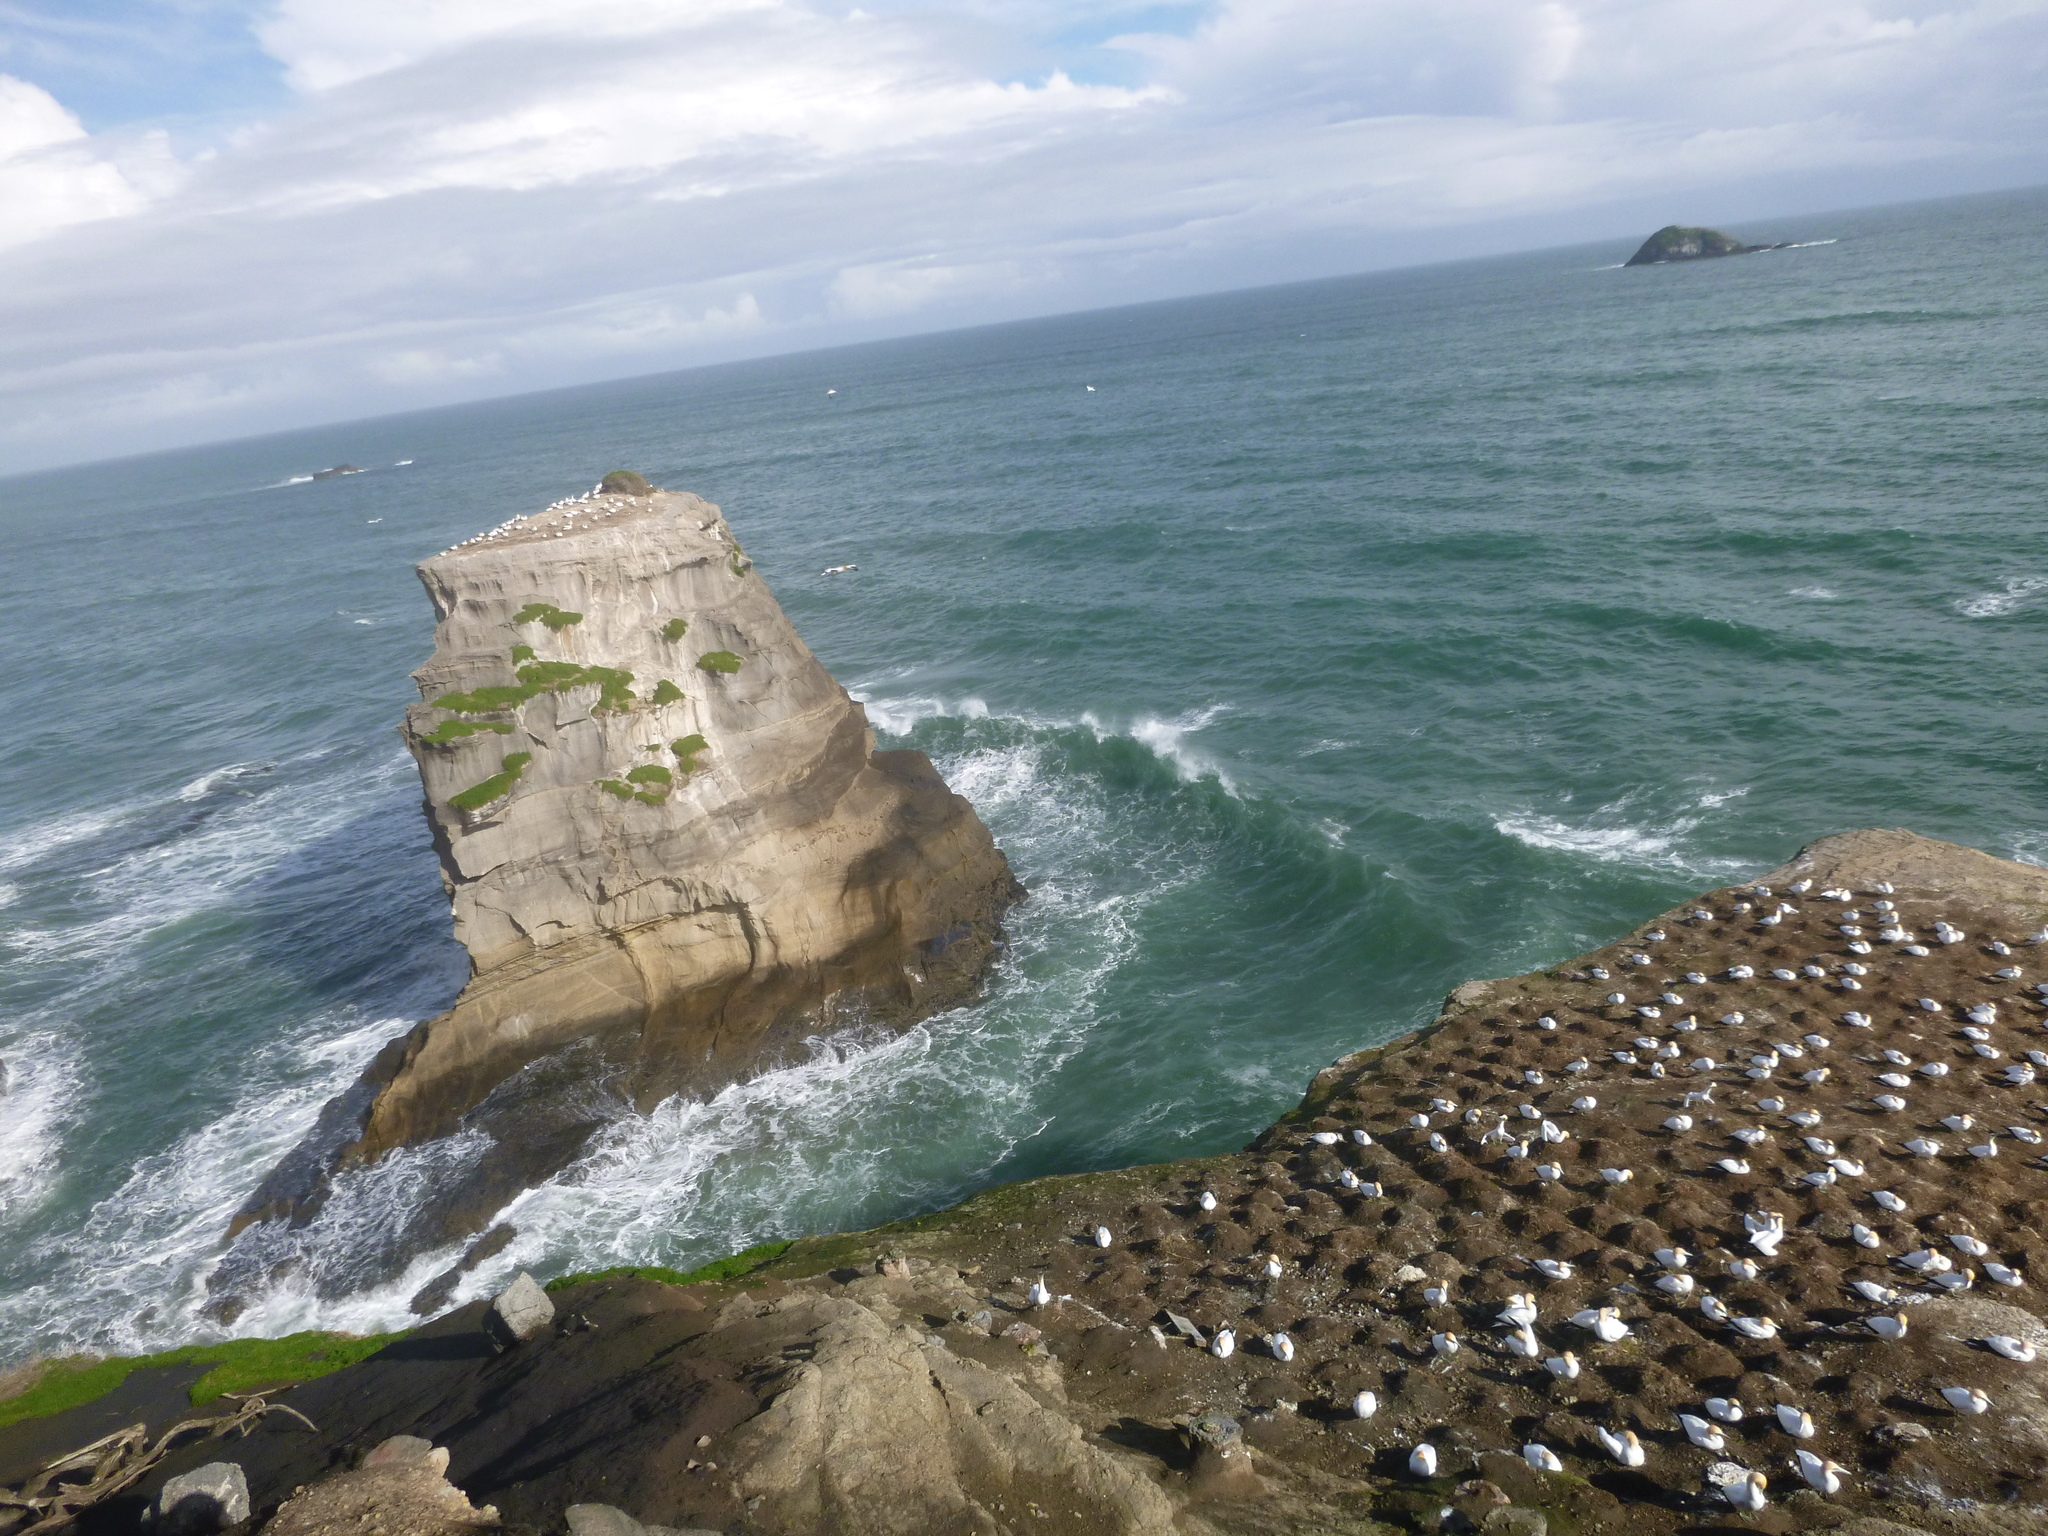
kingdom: Animalia
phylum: Chordata
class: Aves
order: Suliformes
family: Sulidae
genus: Morus
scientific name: Morus serrator
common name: Australasian gannet
